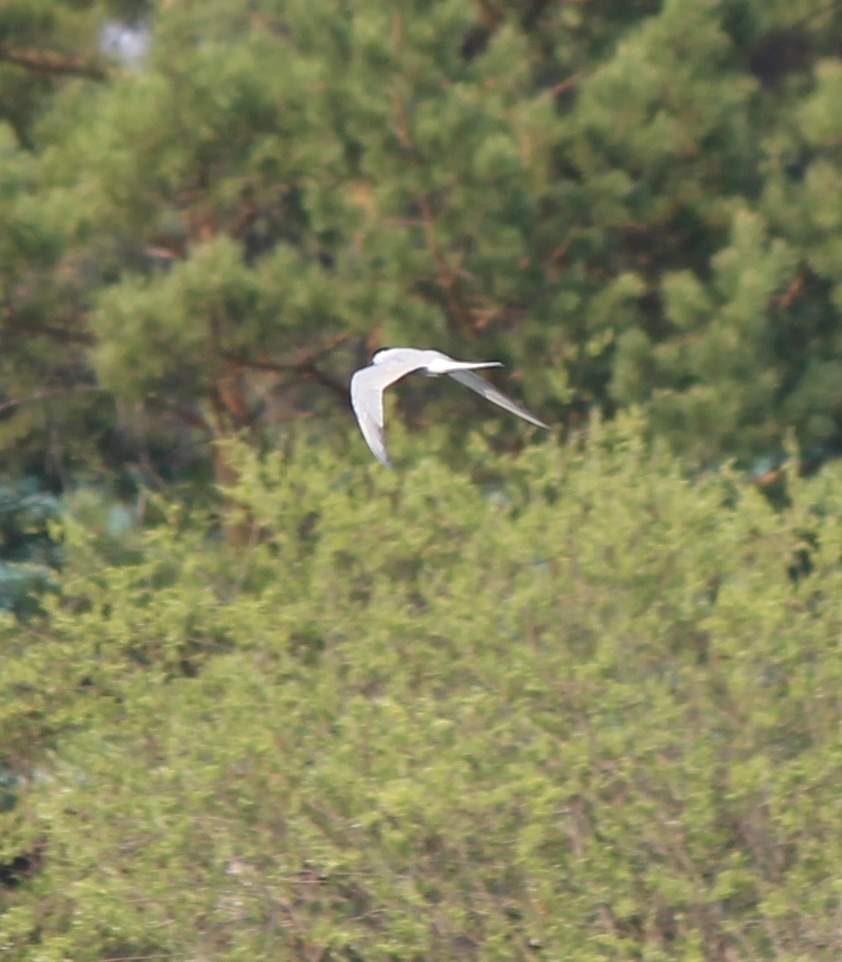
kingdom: Animalia
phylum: Chordata
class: Aves
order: Charadriiformes
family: Laridae
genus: Sterna
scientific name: Sterna hirundo
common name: Common tern
